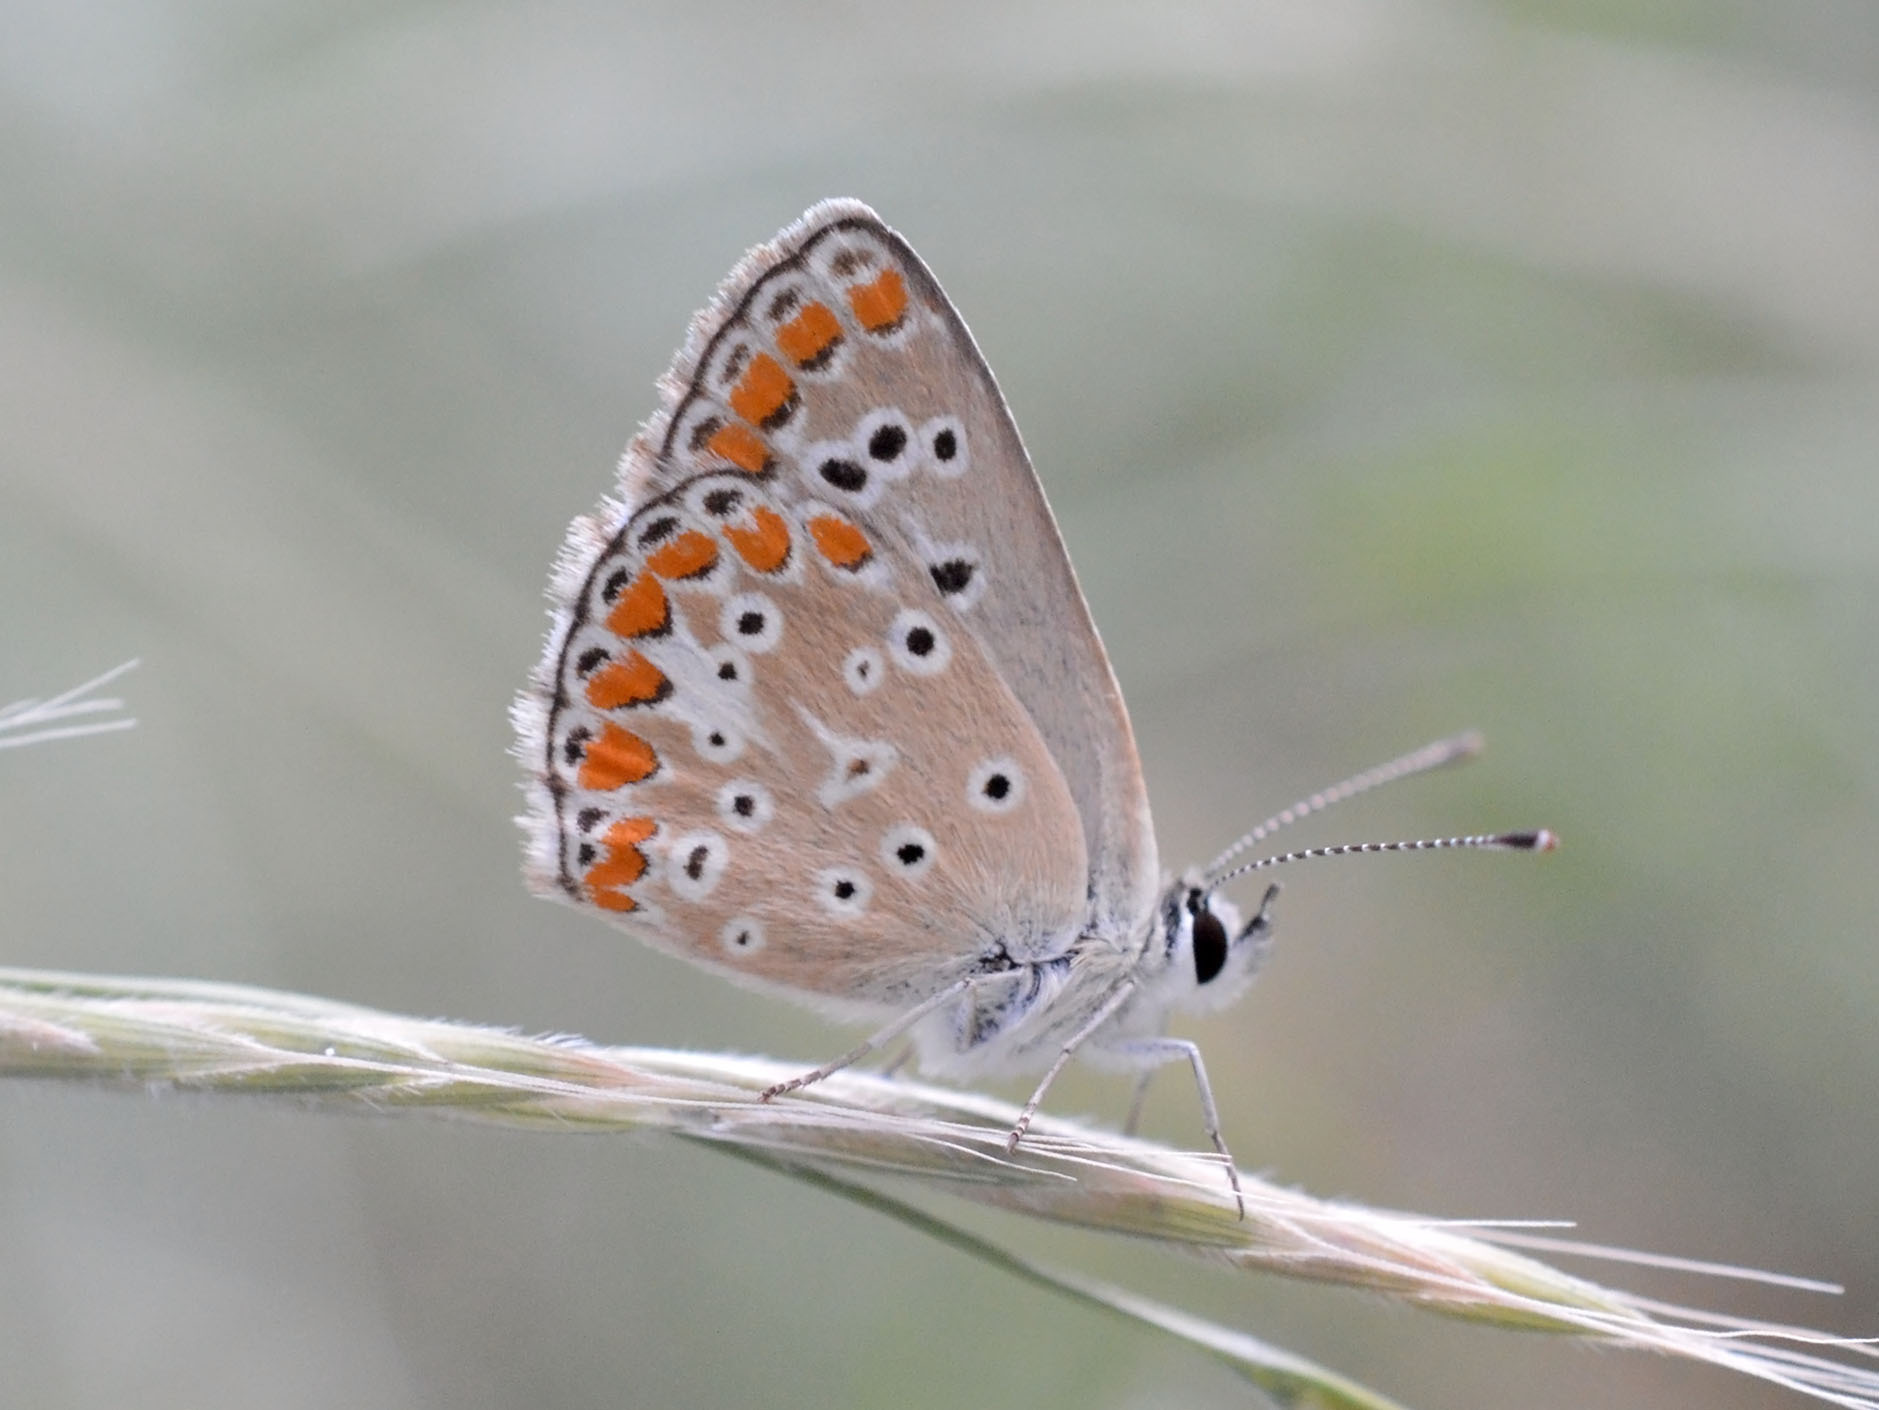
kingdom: Animalia
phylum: Arthropoda
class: Insecta
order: Lepidoptera
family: Lycaenidae
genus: Aricia
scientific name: Aricia agestis
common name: Brown argus
